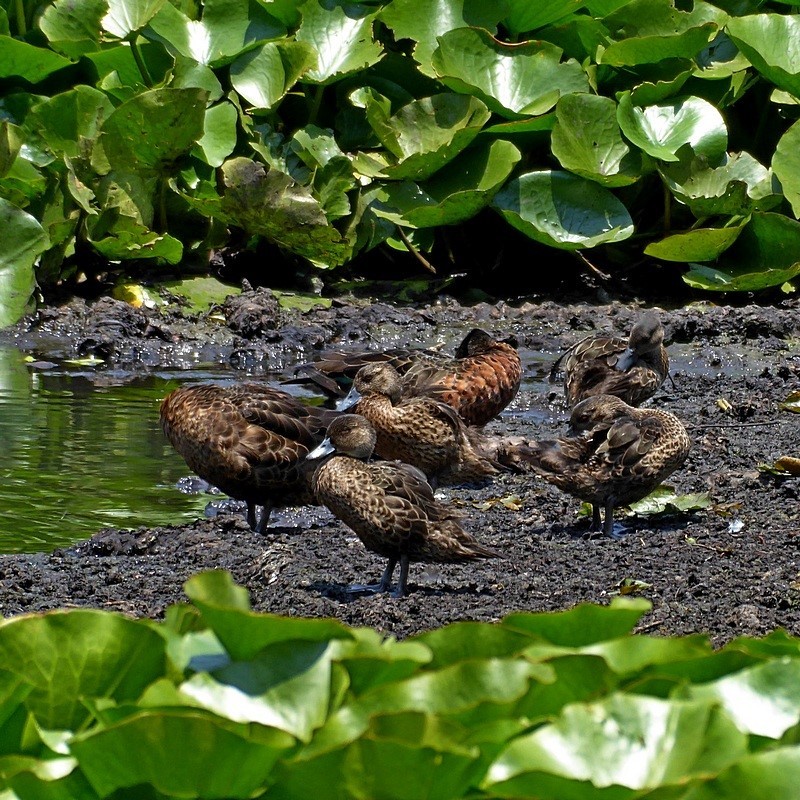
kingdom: Animalia
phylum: Chordata
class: Aves
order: Anseriformes
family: Anatidae
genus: Anas
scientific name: Anas castanea
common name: Chestnut teal
